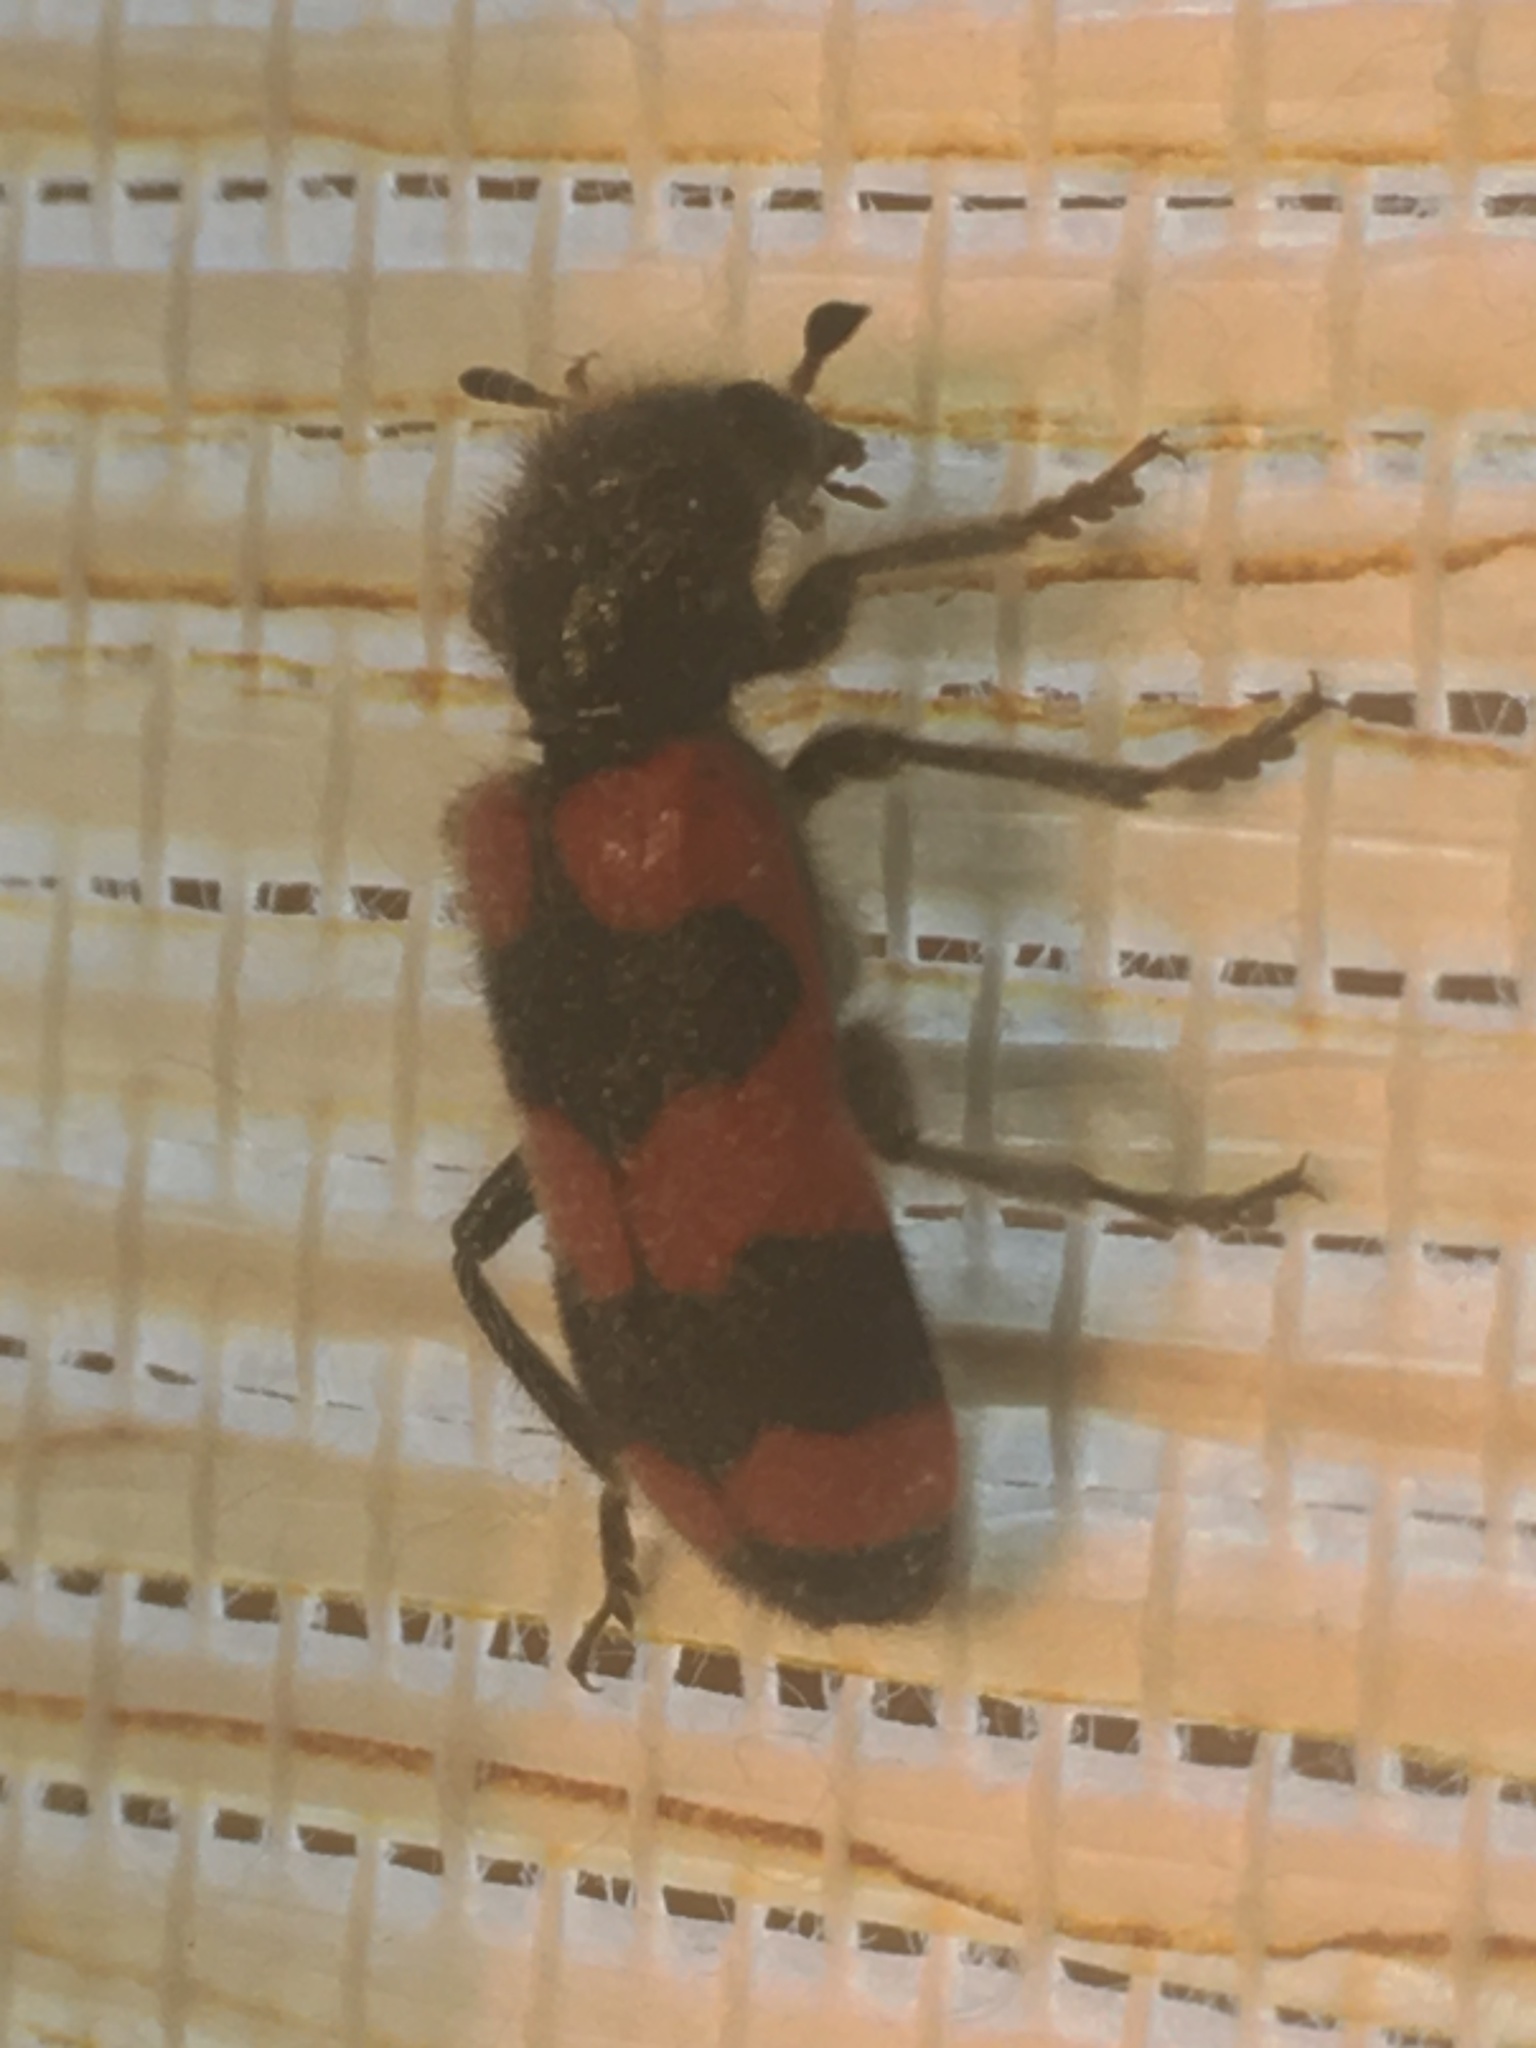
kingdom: Animalia
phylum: Arthropoda
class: Insecta
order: Coleoptera
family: Cleridae
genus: Trichodes
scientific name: Trichodes apiarius
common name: Bee-eating beetle
